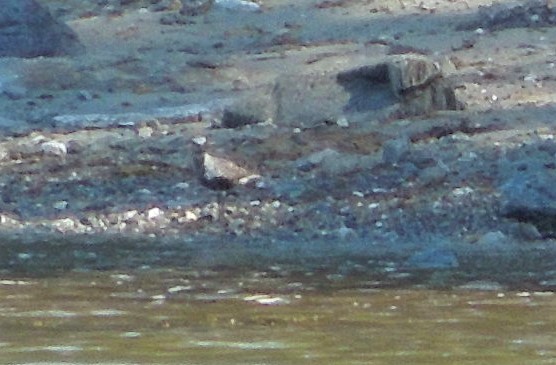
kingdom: Animalia
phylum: Chordata
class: Aves
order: Charadriiformes
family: Charadriidae
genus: Pluvialis
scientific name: Pluvialis squatarola
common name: Grey plover
